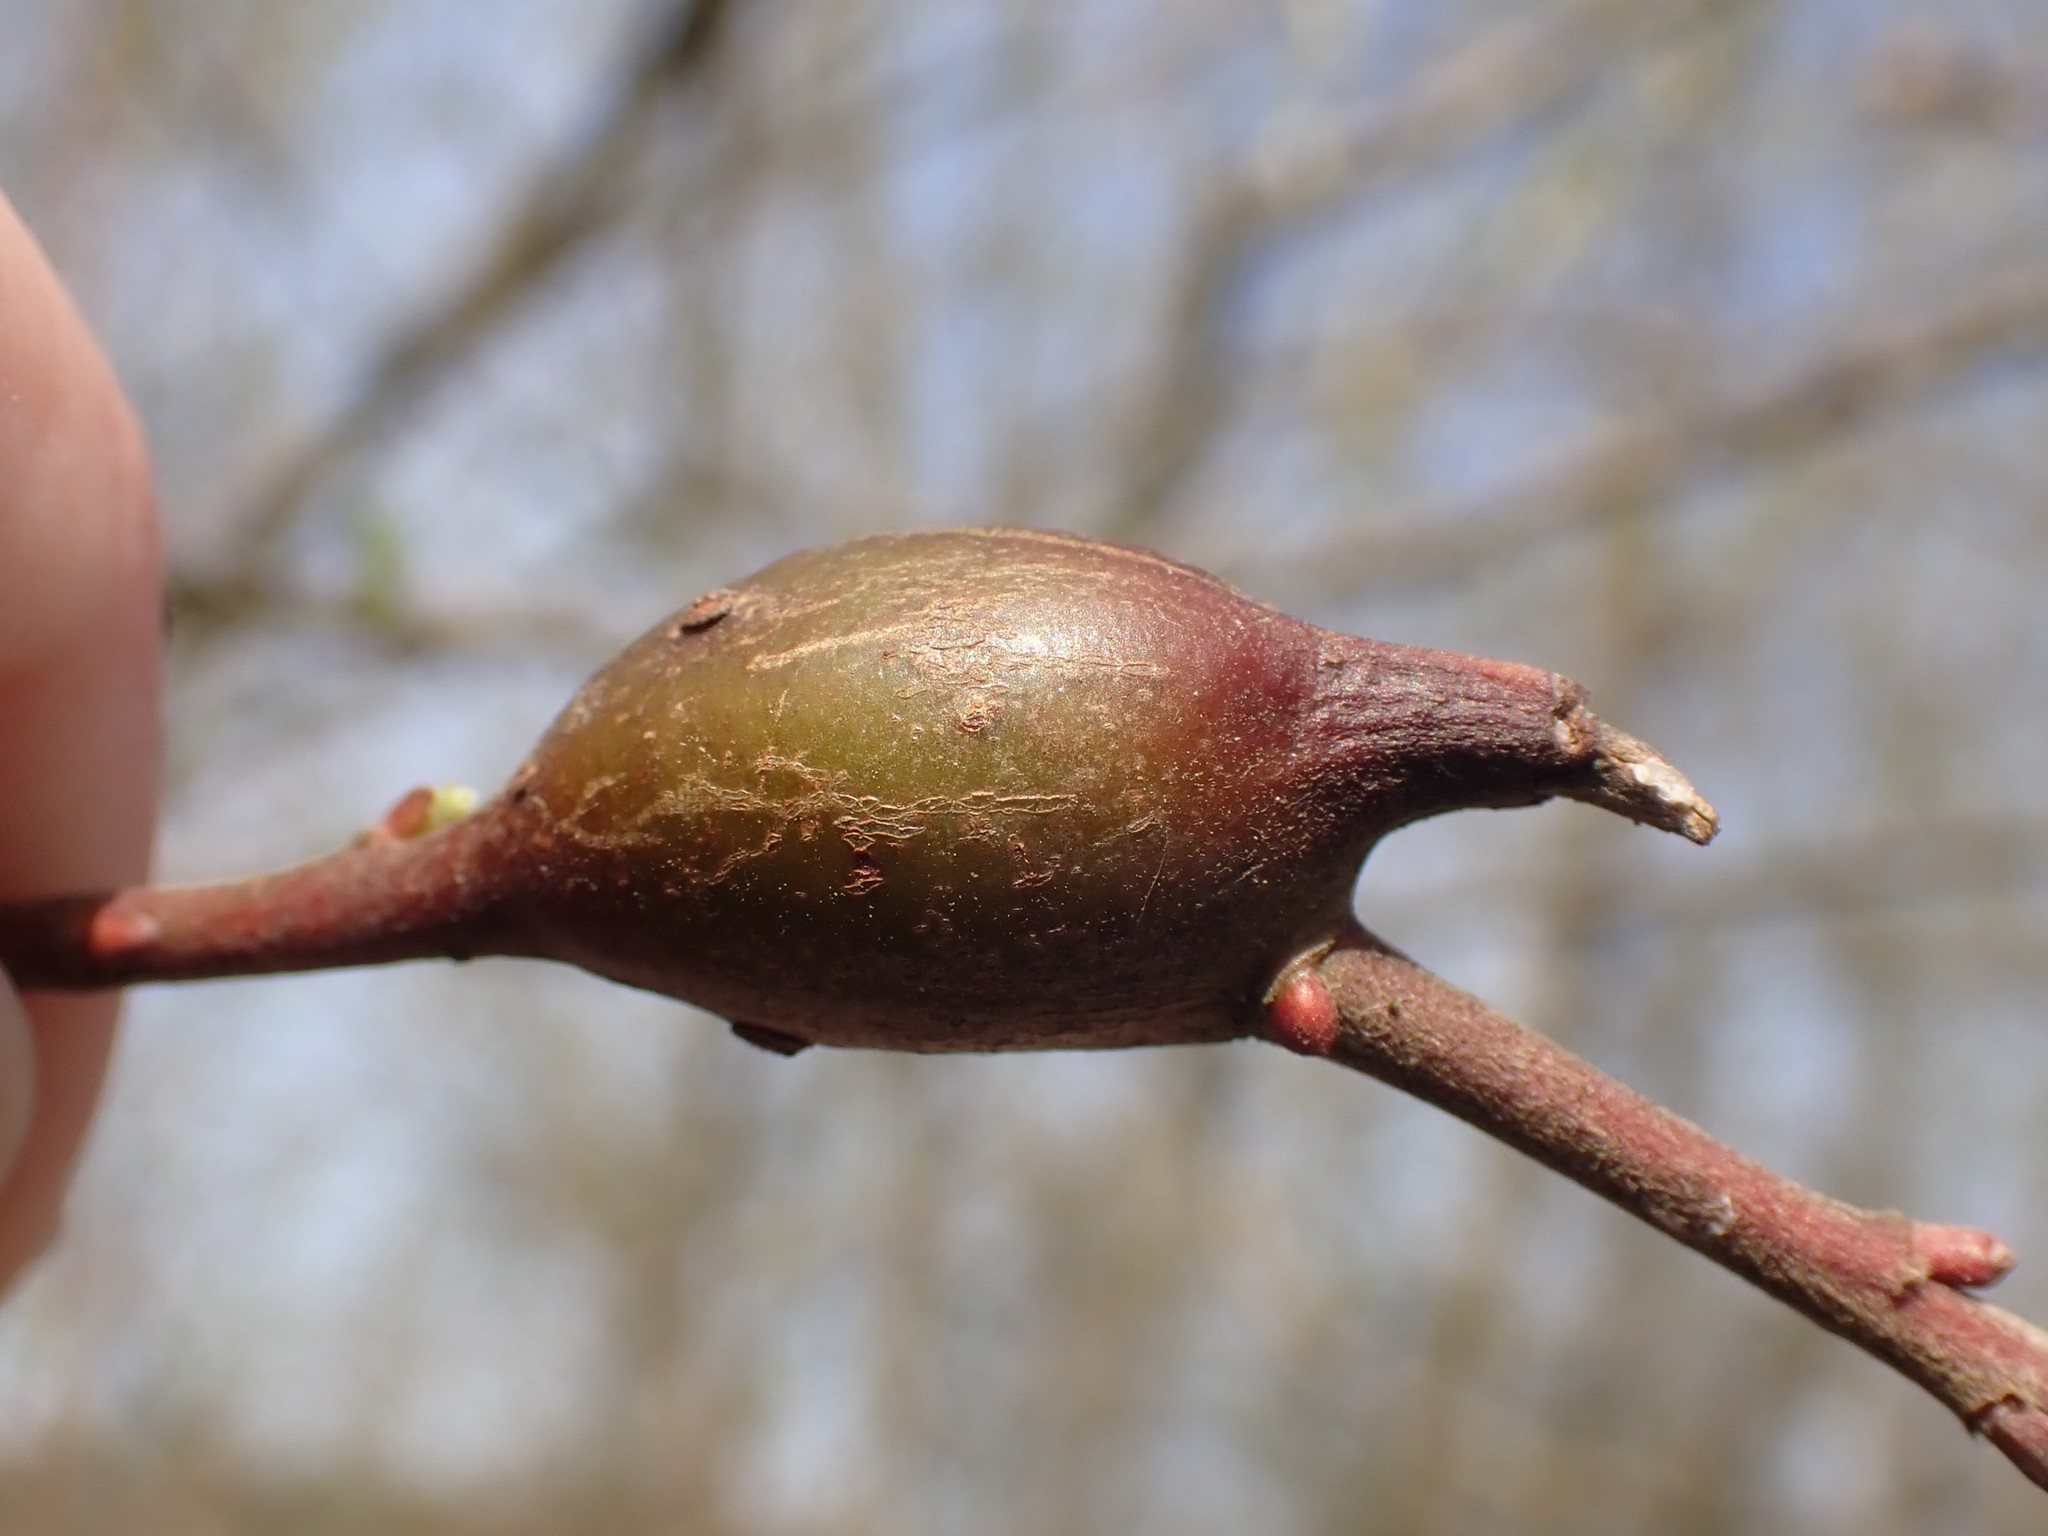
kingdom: Animalia
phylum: Arthropoda
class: Insecta
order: Diptera
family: Cecidomyiidae
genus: Thecodiplosis
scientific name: Thecodiplosis pinirigidae
